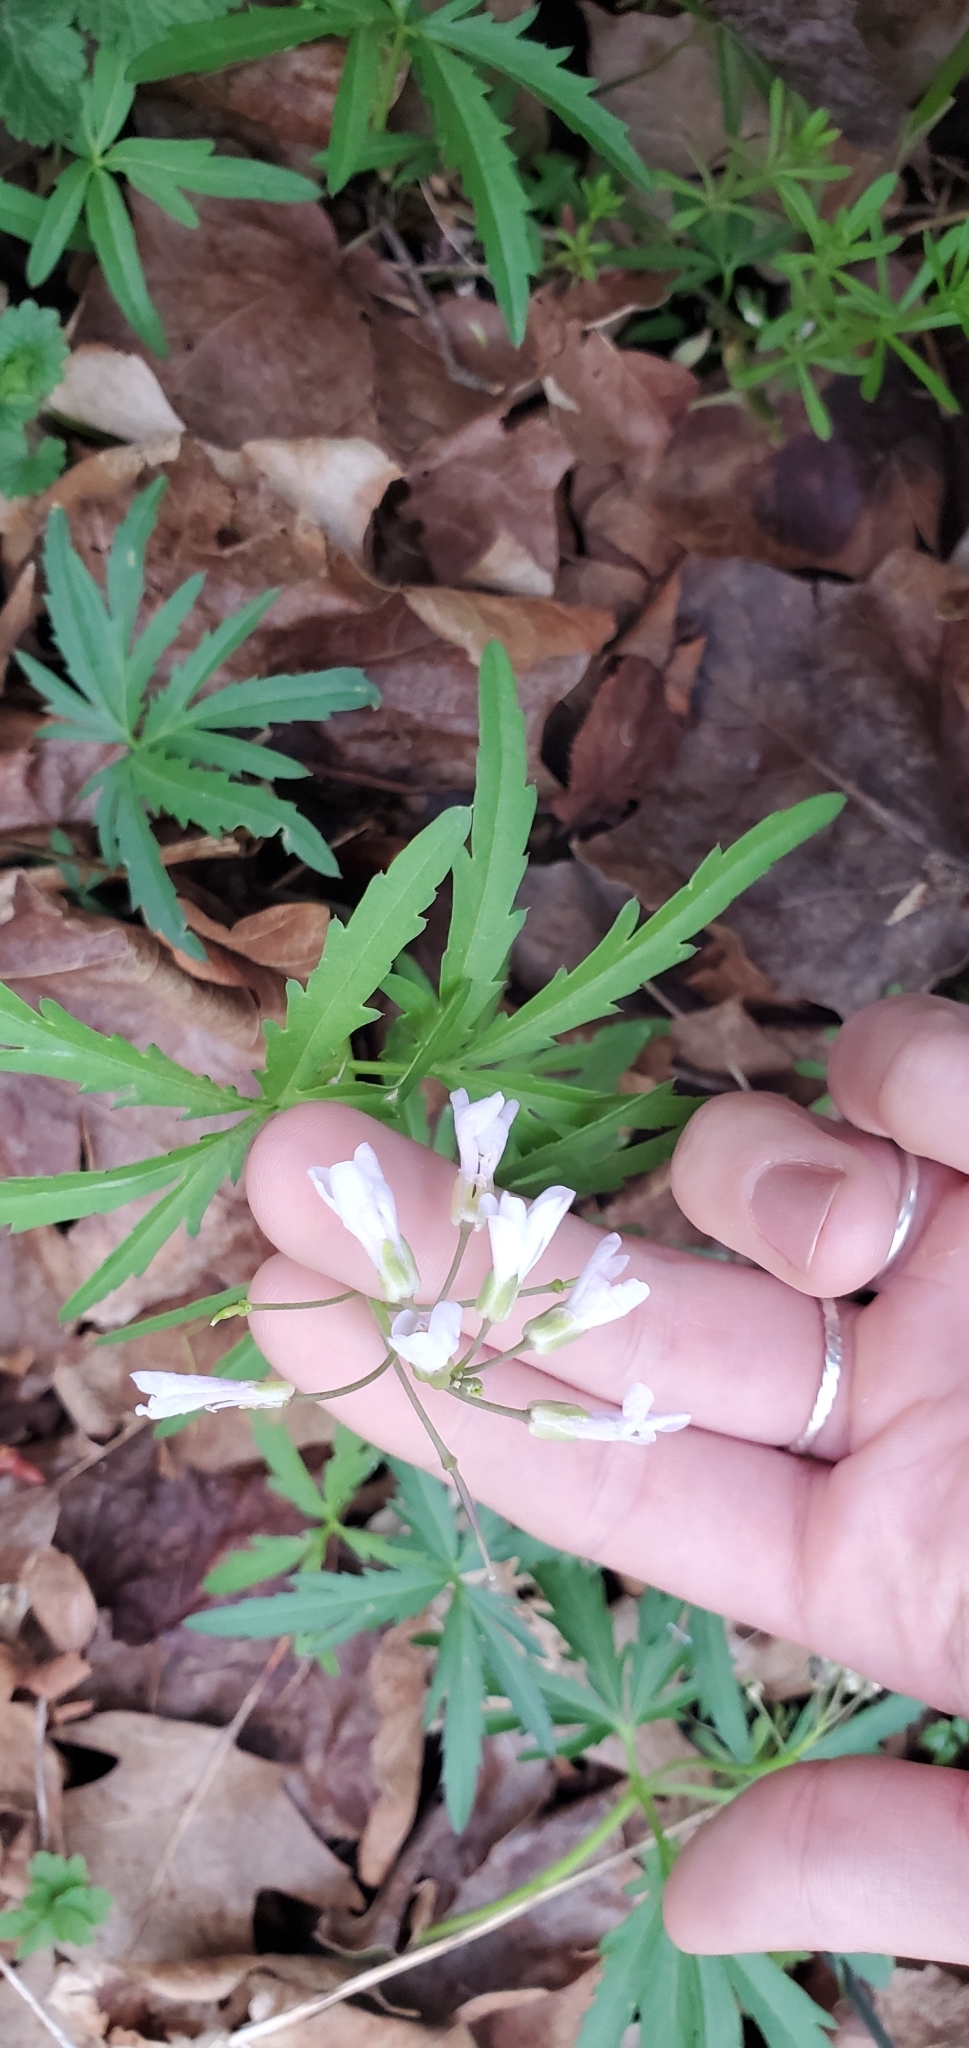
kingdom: Plantae
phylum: Tracheophyta
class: Magnoliopsida
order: Brassicales
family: Brassicaceae
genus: Cardamine
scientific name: Cardamine concatenata
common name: Cut-leaf toothcup
